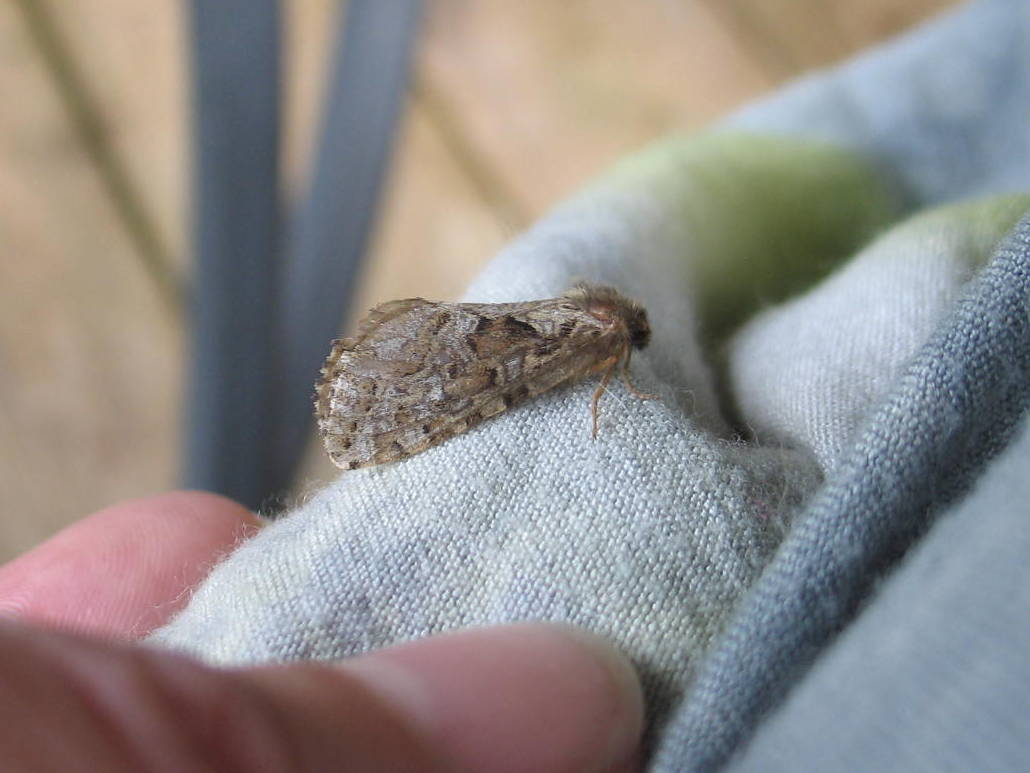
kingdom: Animalia
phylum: Arthropoda
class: Insecta
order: Lepidoptera
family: Hepialidae
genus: Korscheltellus
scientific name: Korscheltellus gracilis
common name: Conifer swift moth
